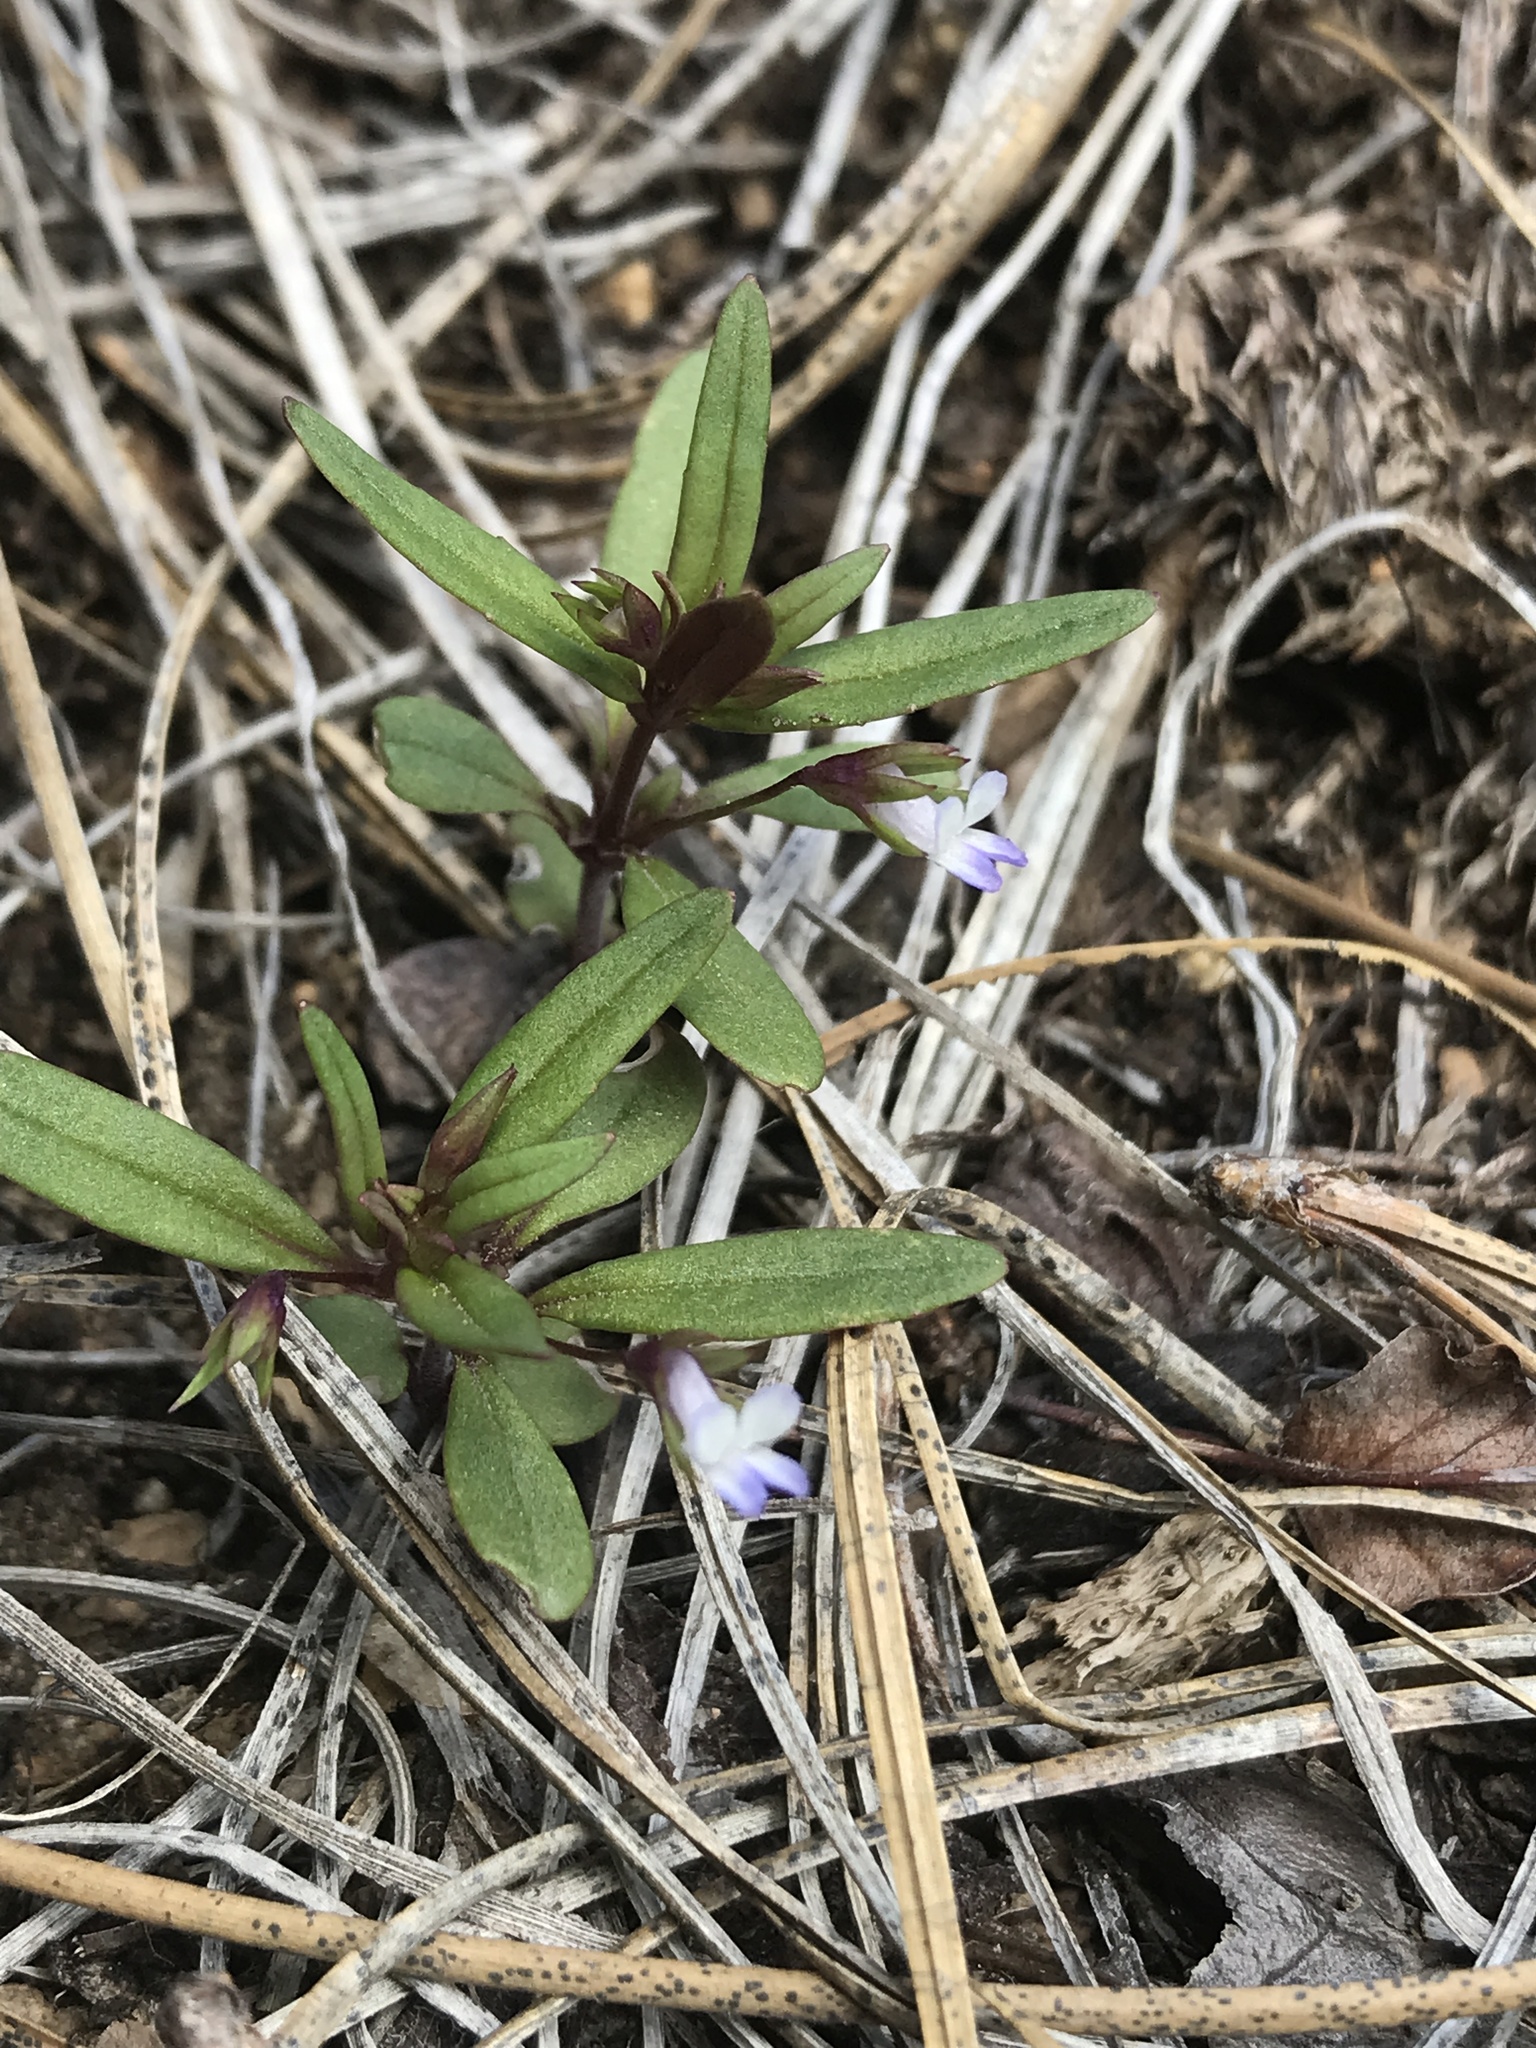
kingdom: Plantae
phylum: Tracheophyta
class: Magnoliopsida
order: Lamiales
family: Plantaginaceae
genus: Collinsia
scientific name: Collinsia parviflora
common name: Blue-lips
